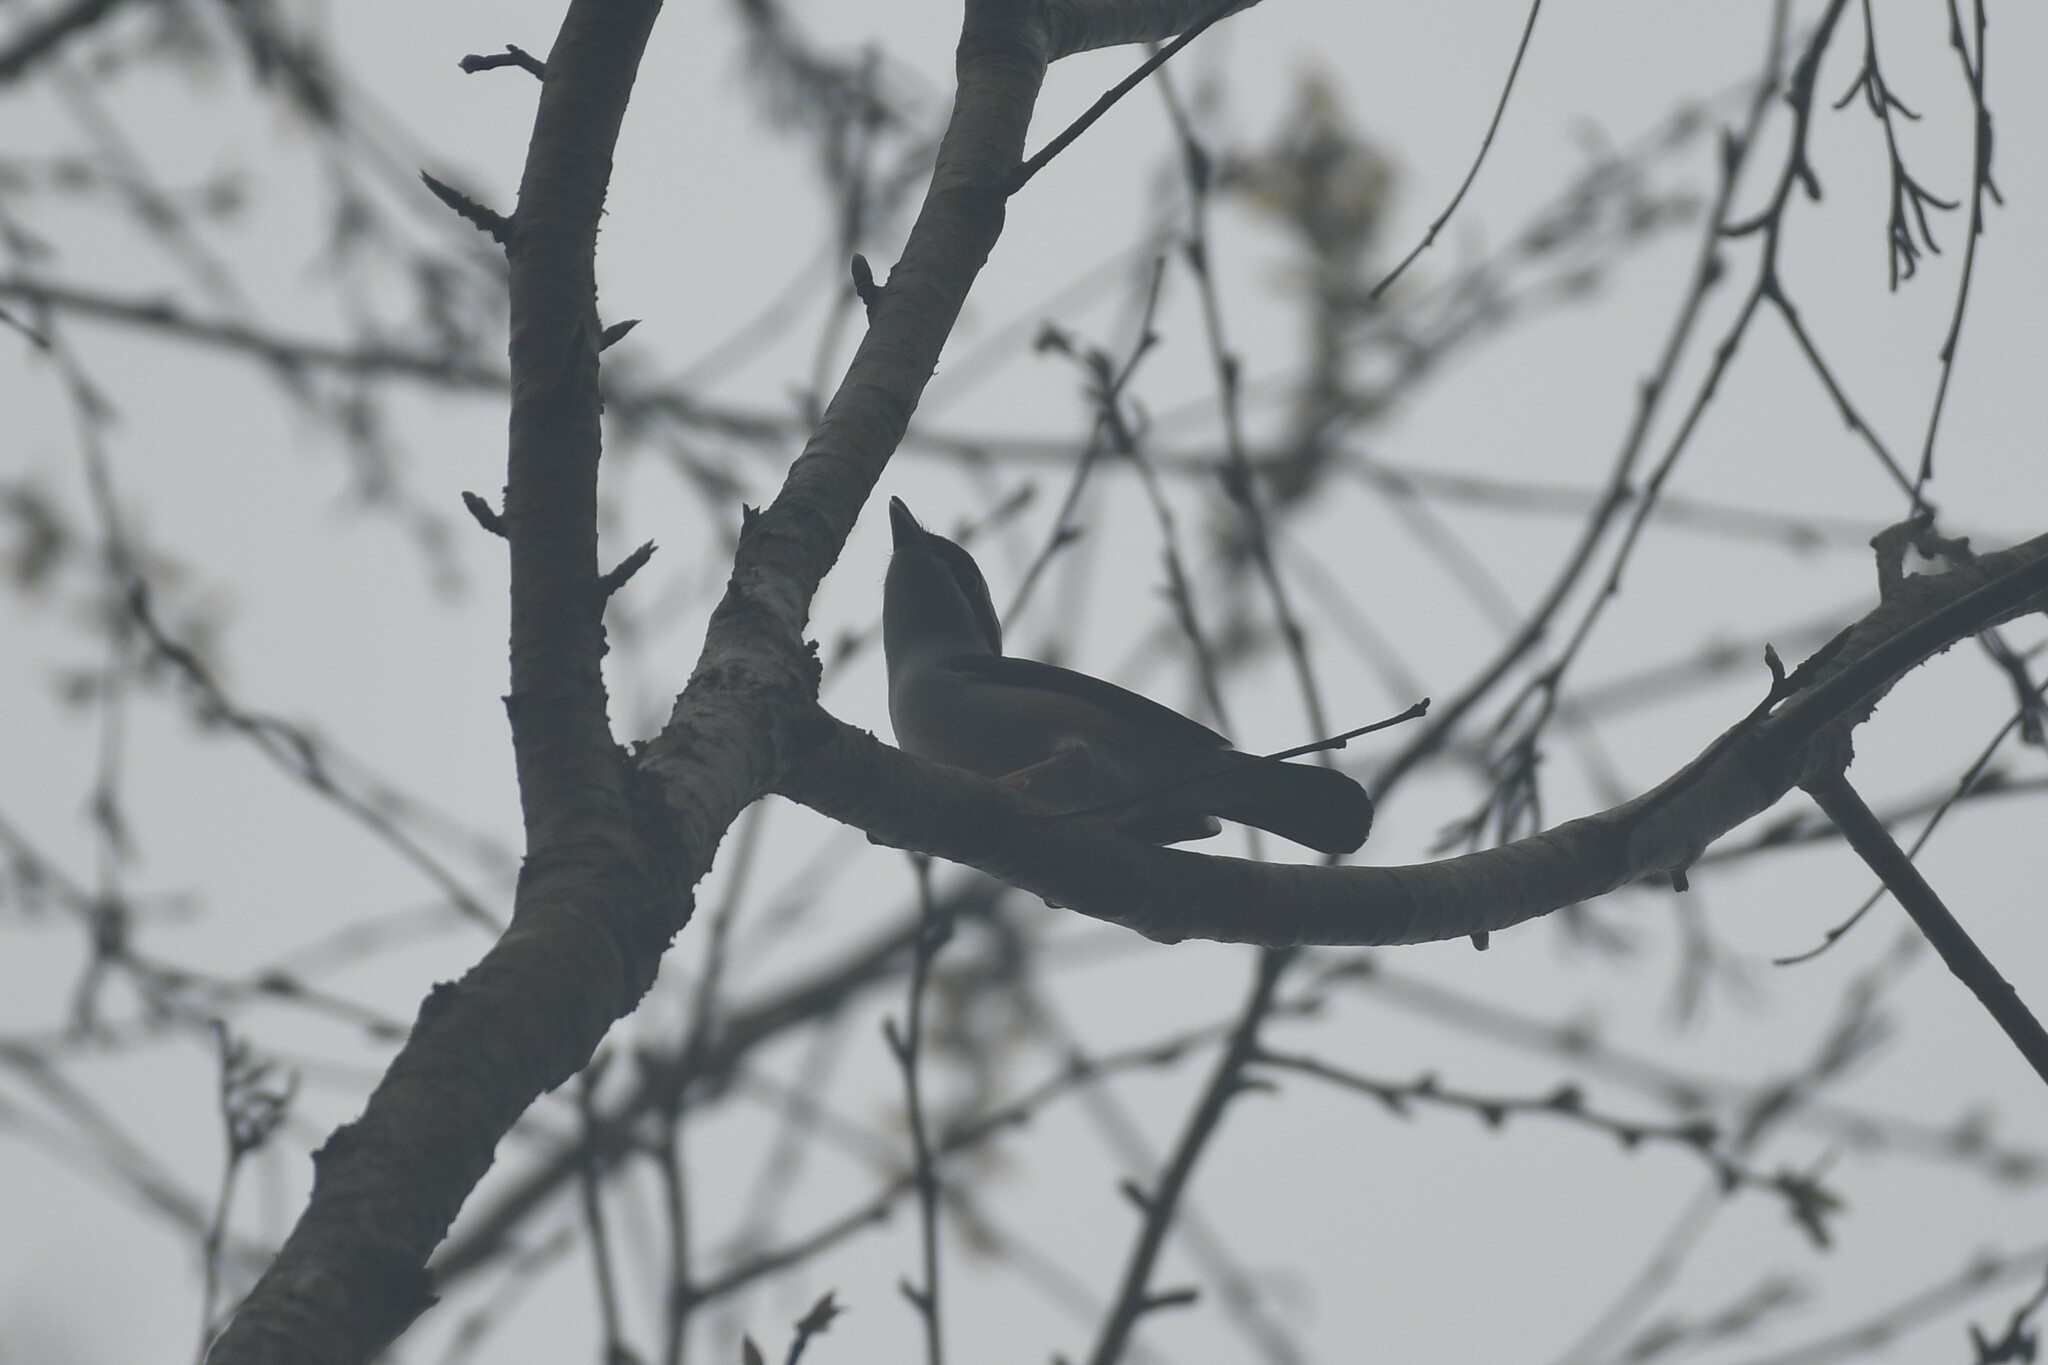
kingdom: Animalia
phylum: Chordata
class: Aves
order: Passeriformes
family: Vireonidae
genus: Pteruthius
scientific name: Pteruthius aeralatus
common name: Blyth's shrike-babbler
